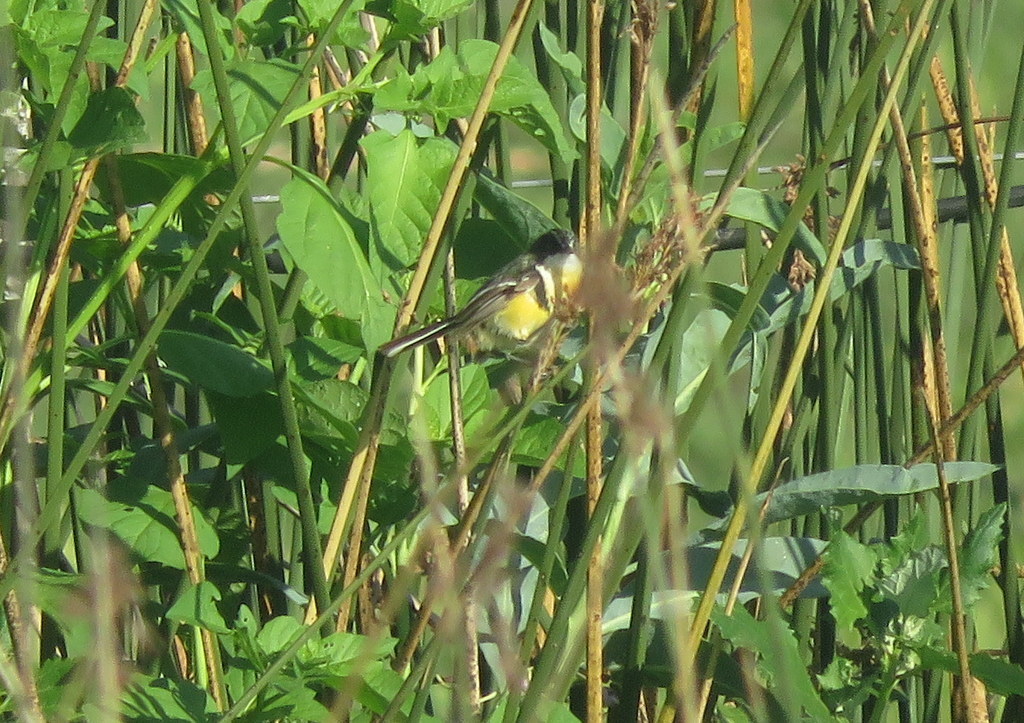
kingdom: Animalia
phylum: Chordata
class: Aves
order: Passeriformes
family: Tyrannidae
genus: Tachuris
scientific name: Tachuris rubrigastra
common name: Many-colored rush tyrant
